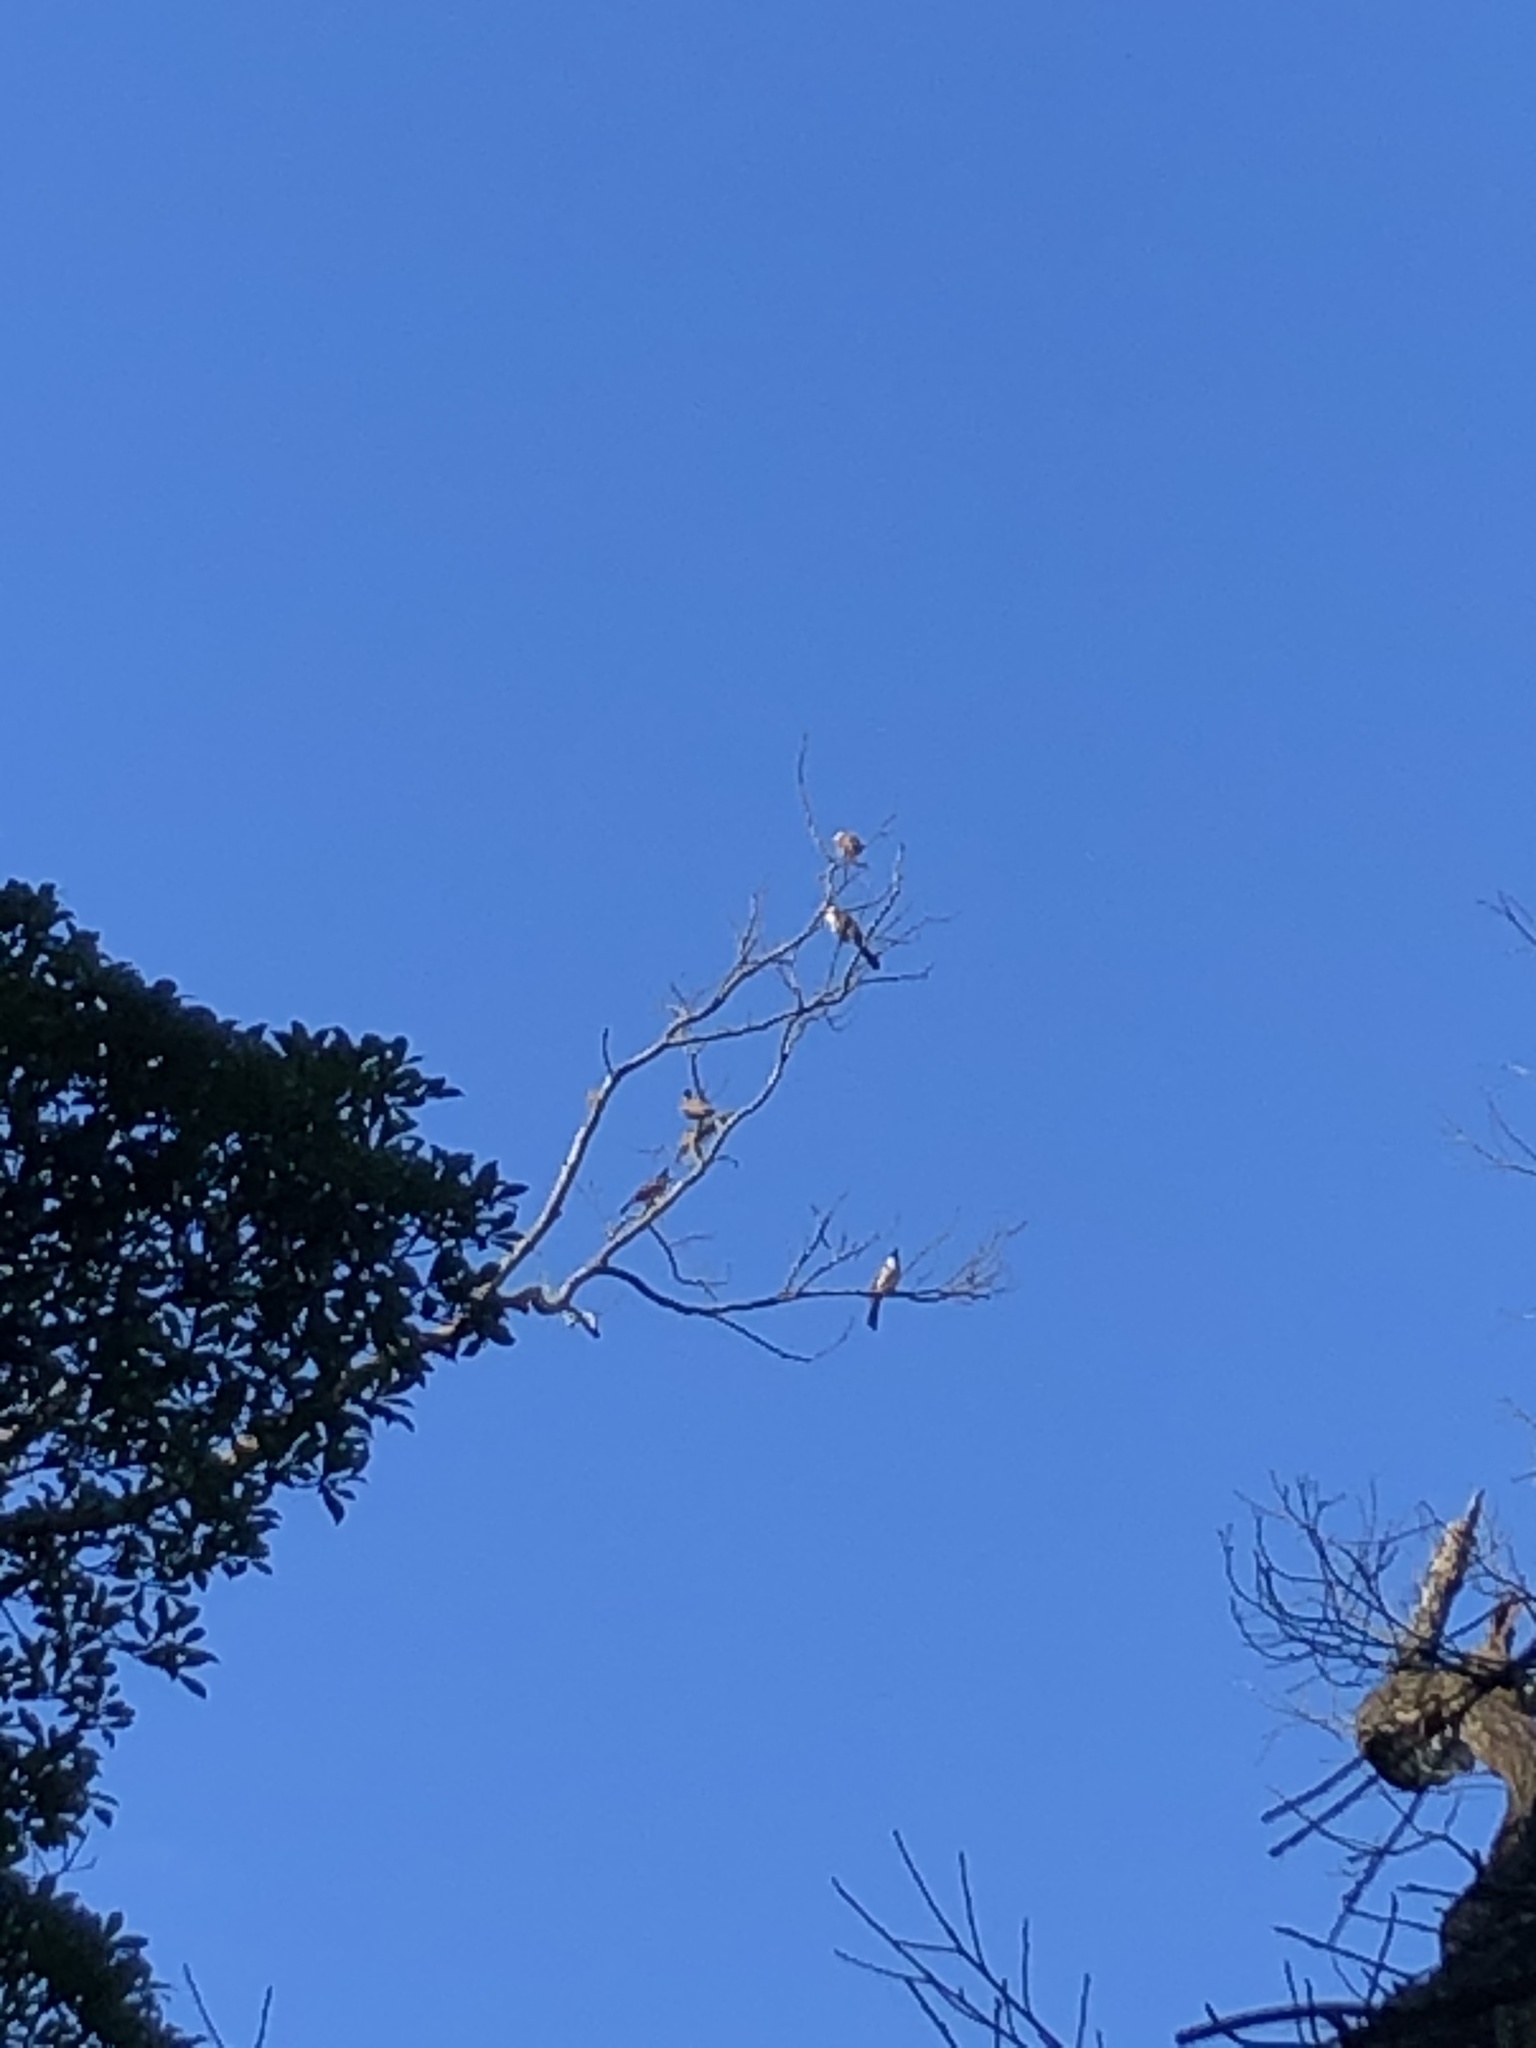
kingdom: Animalia
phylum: Chordata
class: Aves
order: Passeriformes
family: Pycnonotidae
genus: Pycnonotus
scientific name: Pycnonotus jocosus
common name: Red-whiskered bulbul
